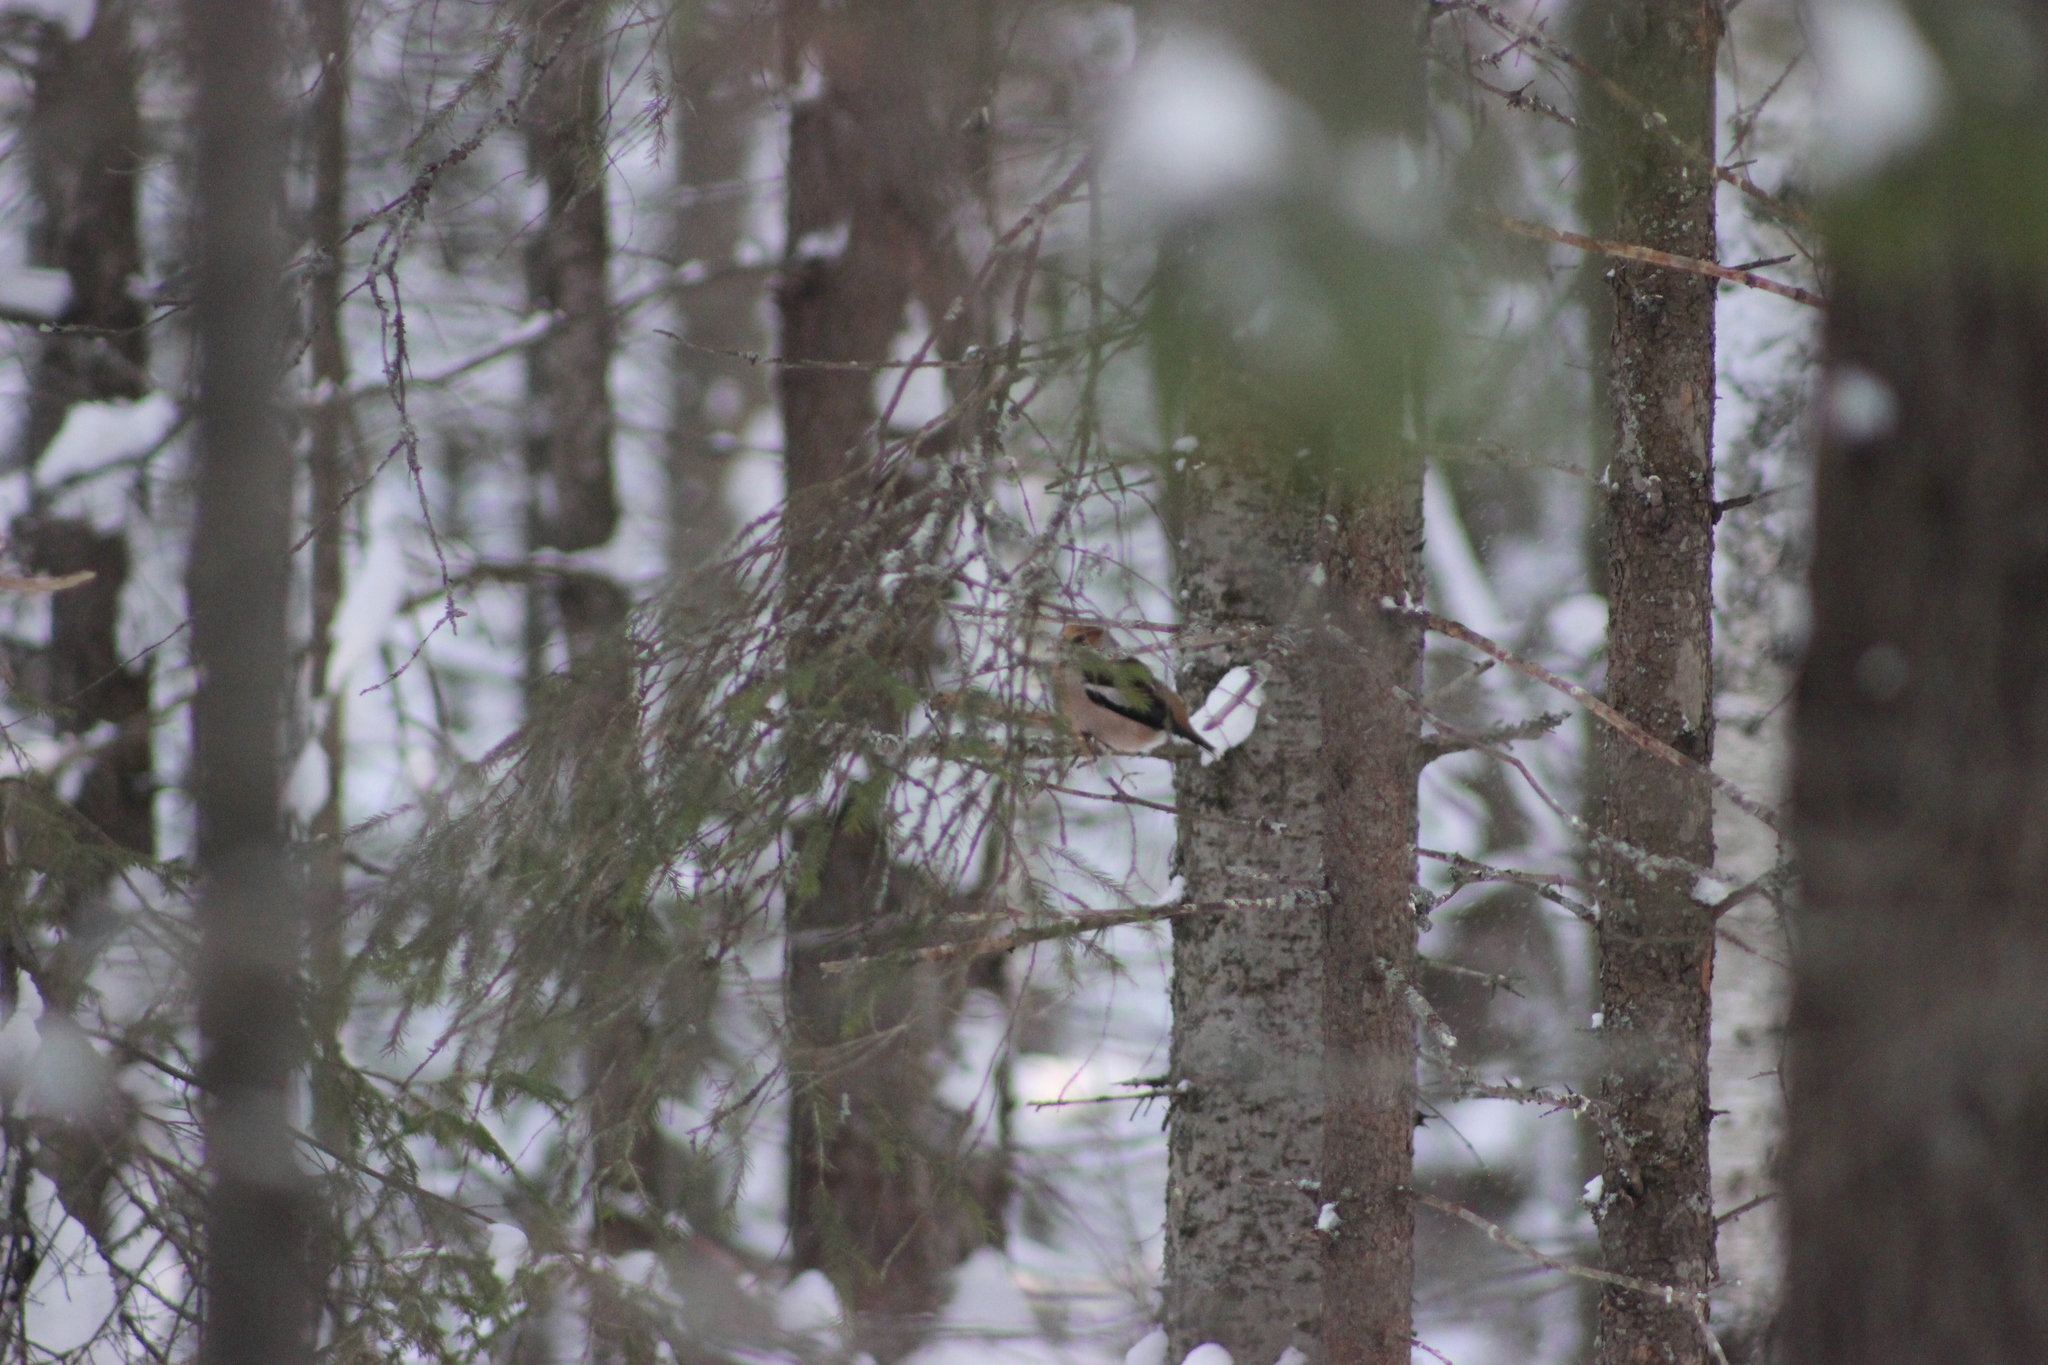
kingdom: Animalia
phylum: Chordata
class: Aves
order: Passeriformes
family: Fringillidae
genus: Coccothraustes
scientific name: Coccothraustes coccothraustes
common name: Hawfinch
